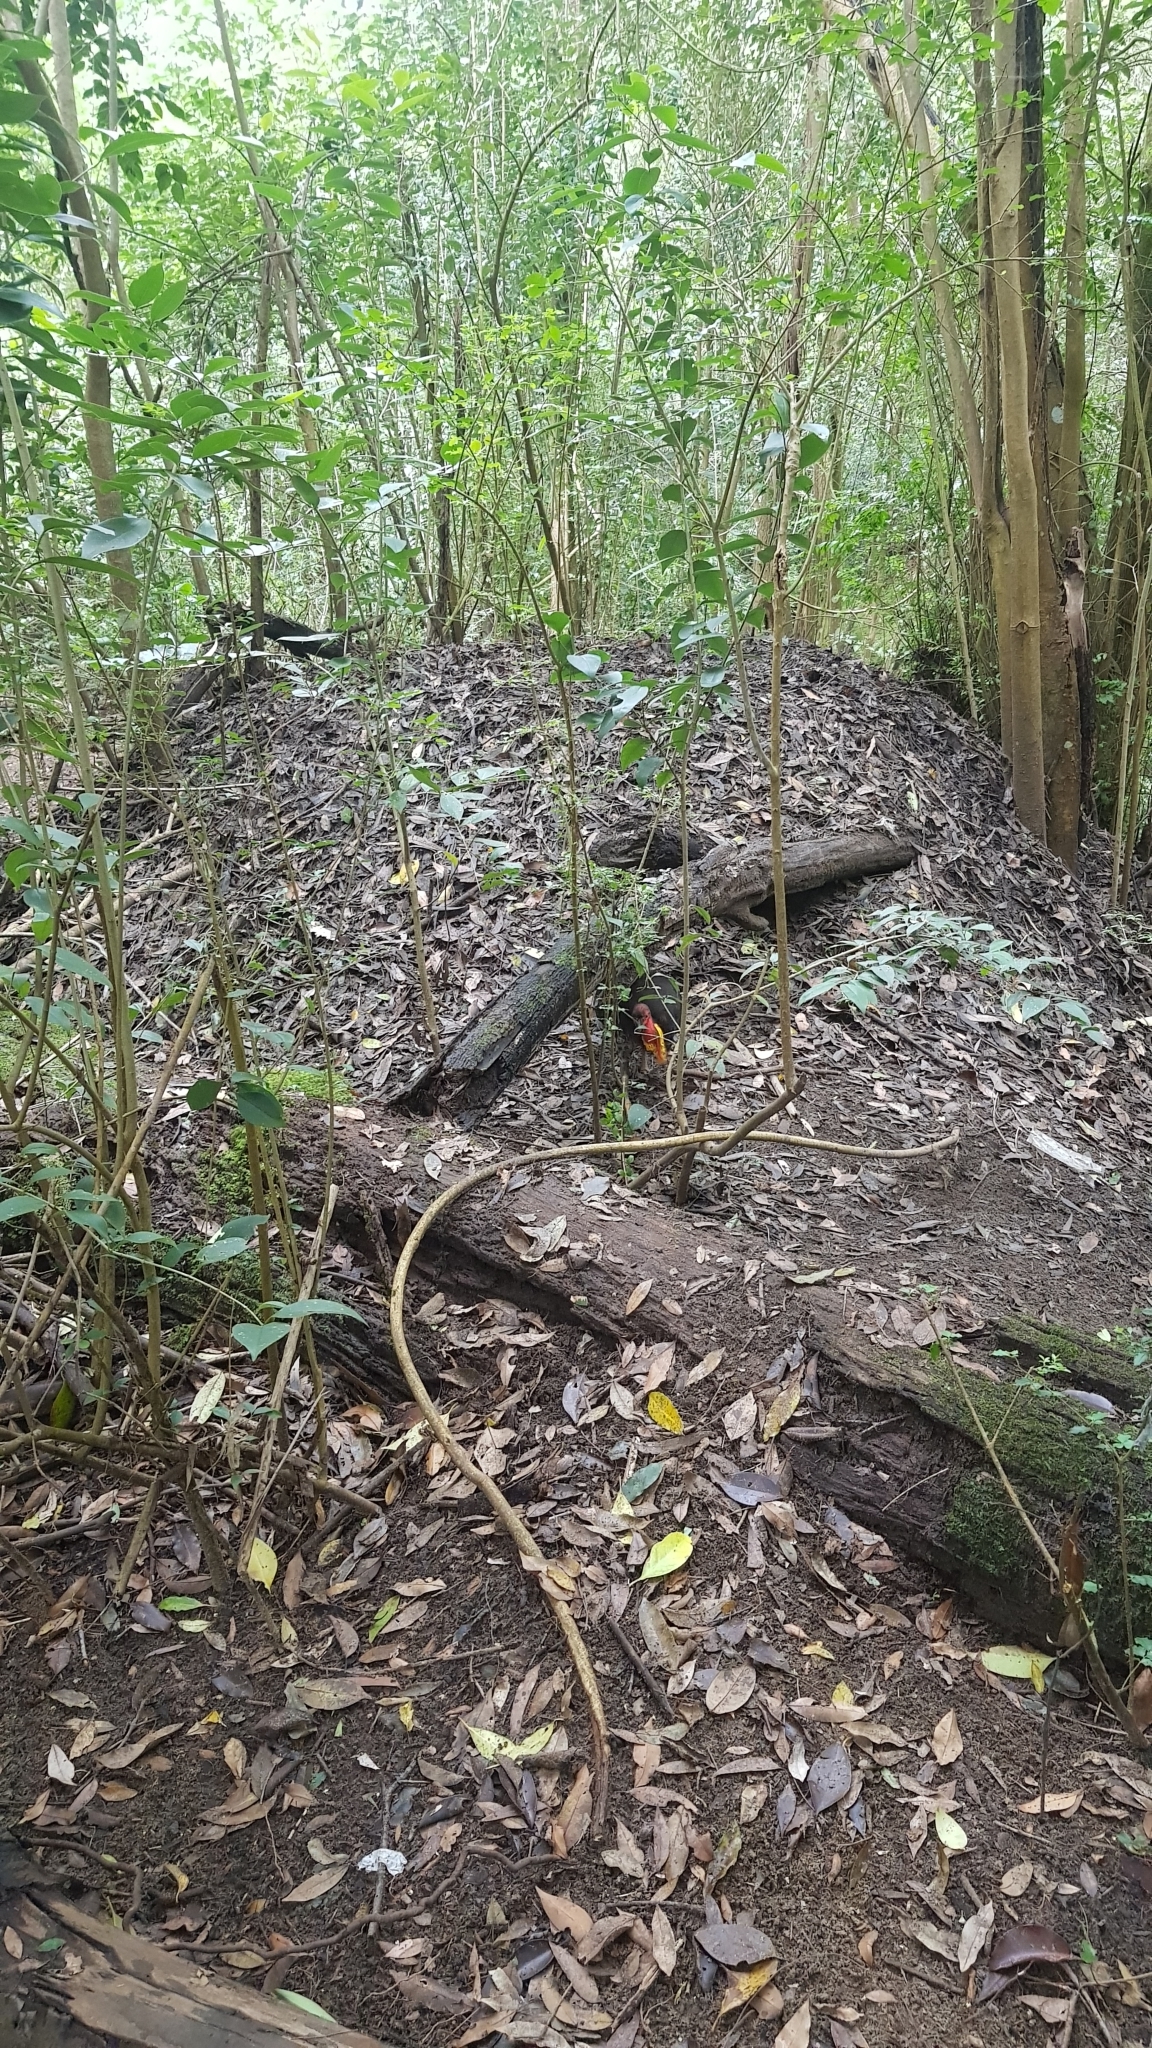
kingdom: Animalia
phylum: Chordata
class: Aves
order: Galliformes
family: Megapodiidae
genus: Alectura
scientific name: Alectura lathami
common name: Australian brushturkey
